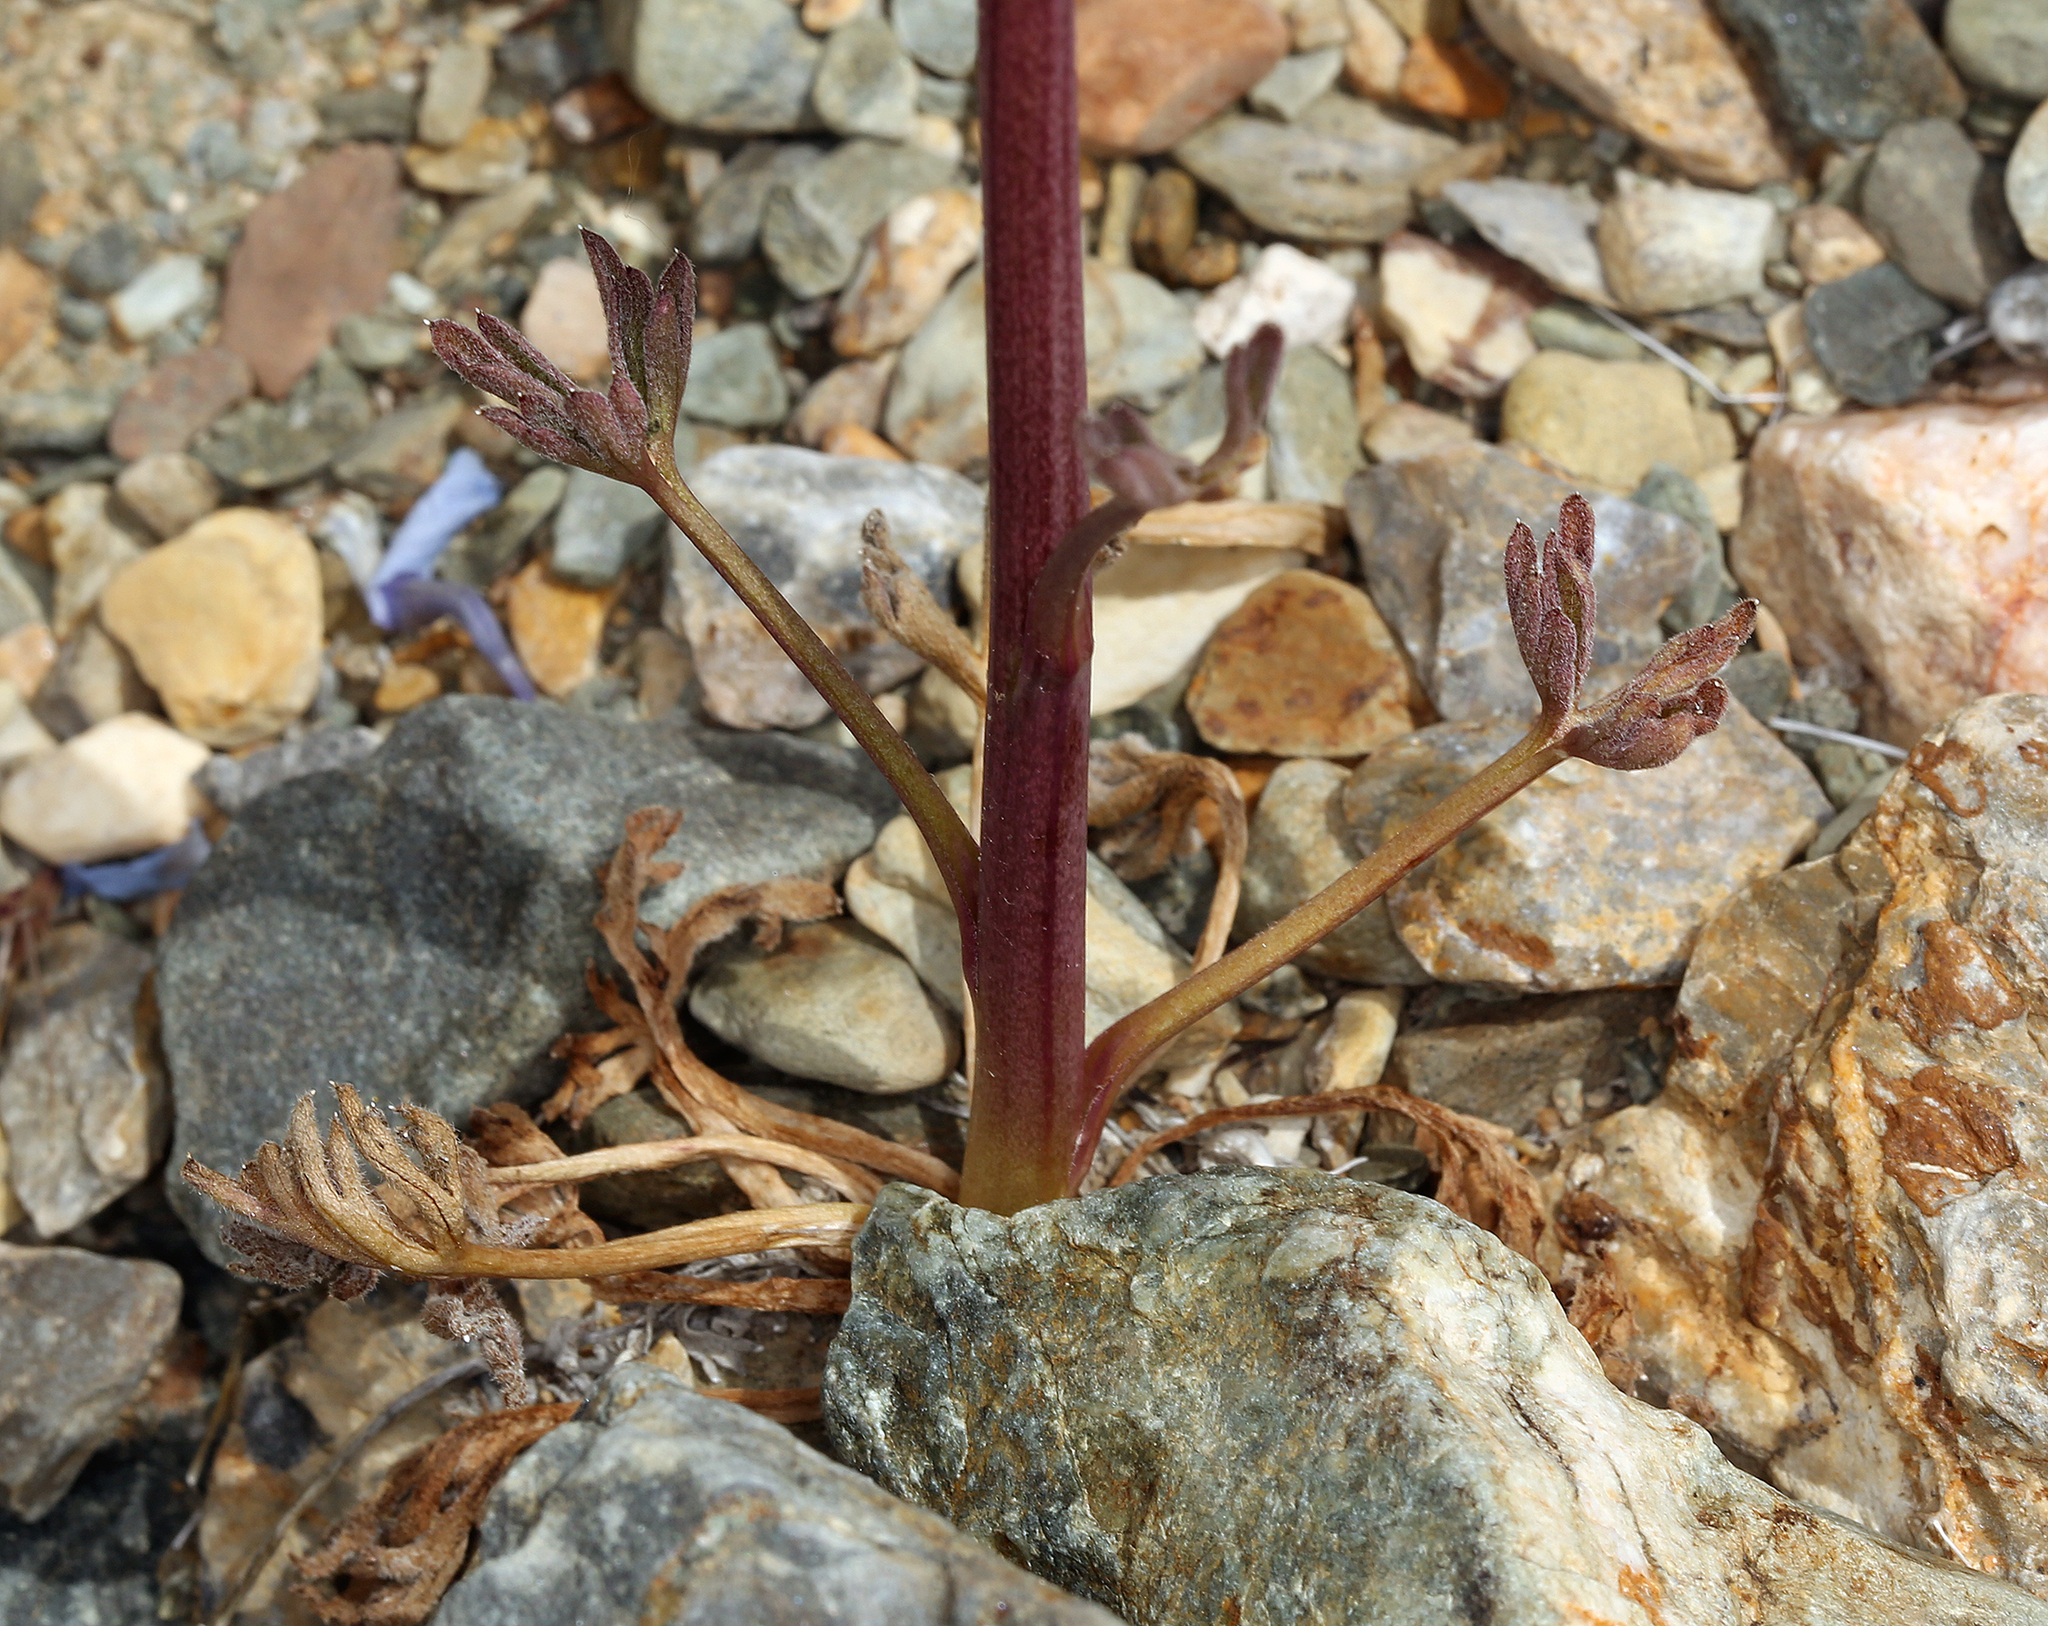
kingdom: Plantae
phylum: Tracheophyta
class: Magnoliopsida
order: Ranunculales
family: Ranunculaceae
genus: Delphinium
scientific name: Delphinium parishii
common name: Apache larkspur
